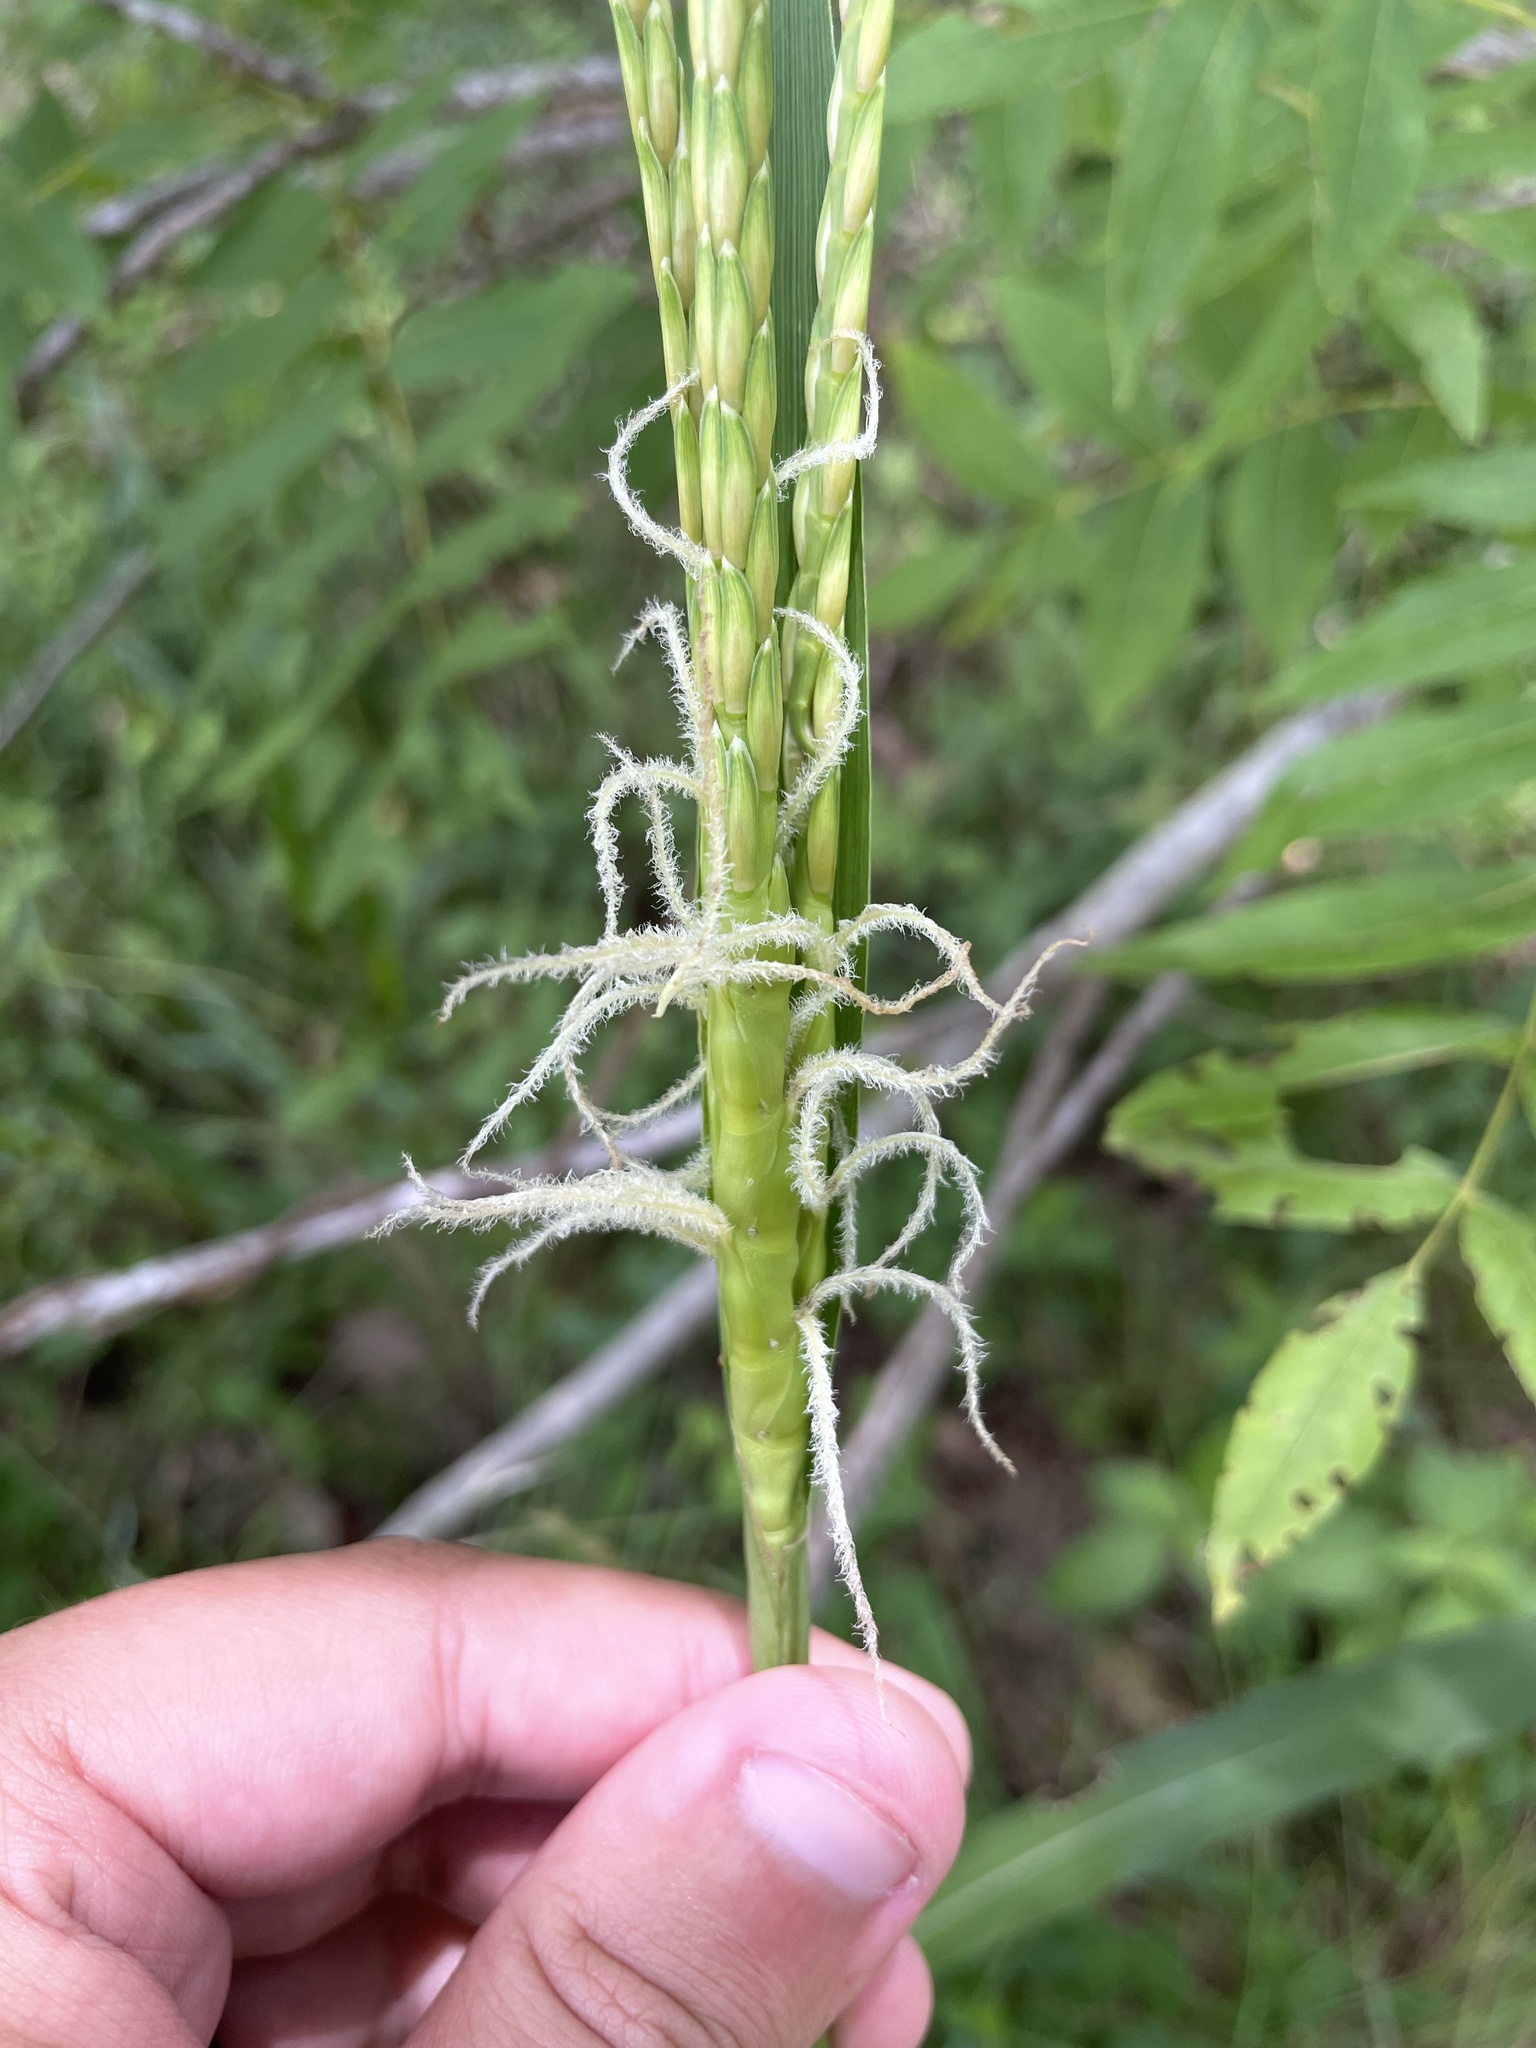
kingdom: Plantae
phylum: Tracheophyta
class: Liliopsida
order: Poales
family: Poaceae
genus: Tripsacum
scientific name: Tripsacum dactyloides
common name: Buffalo-grass
